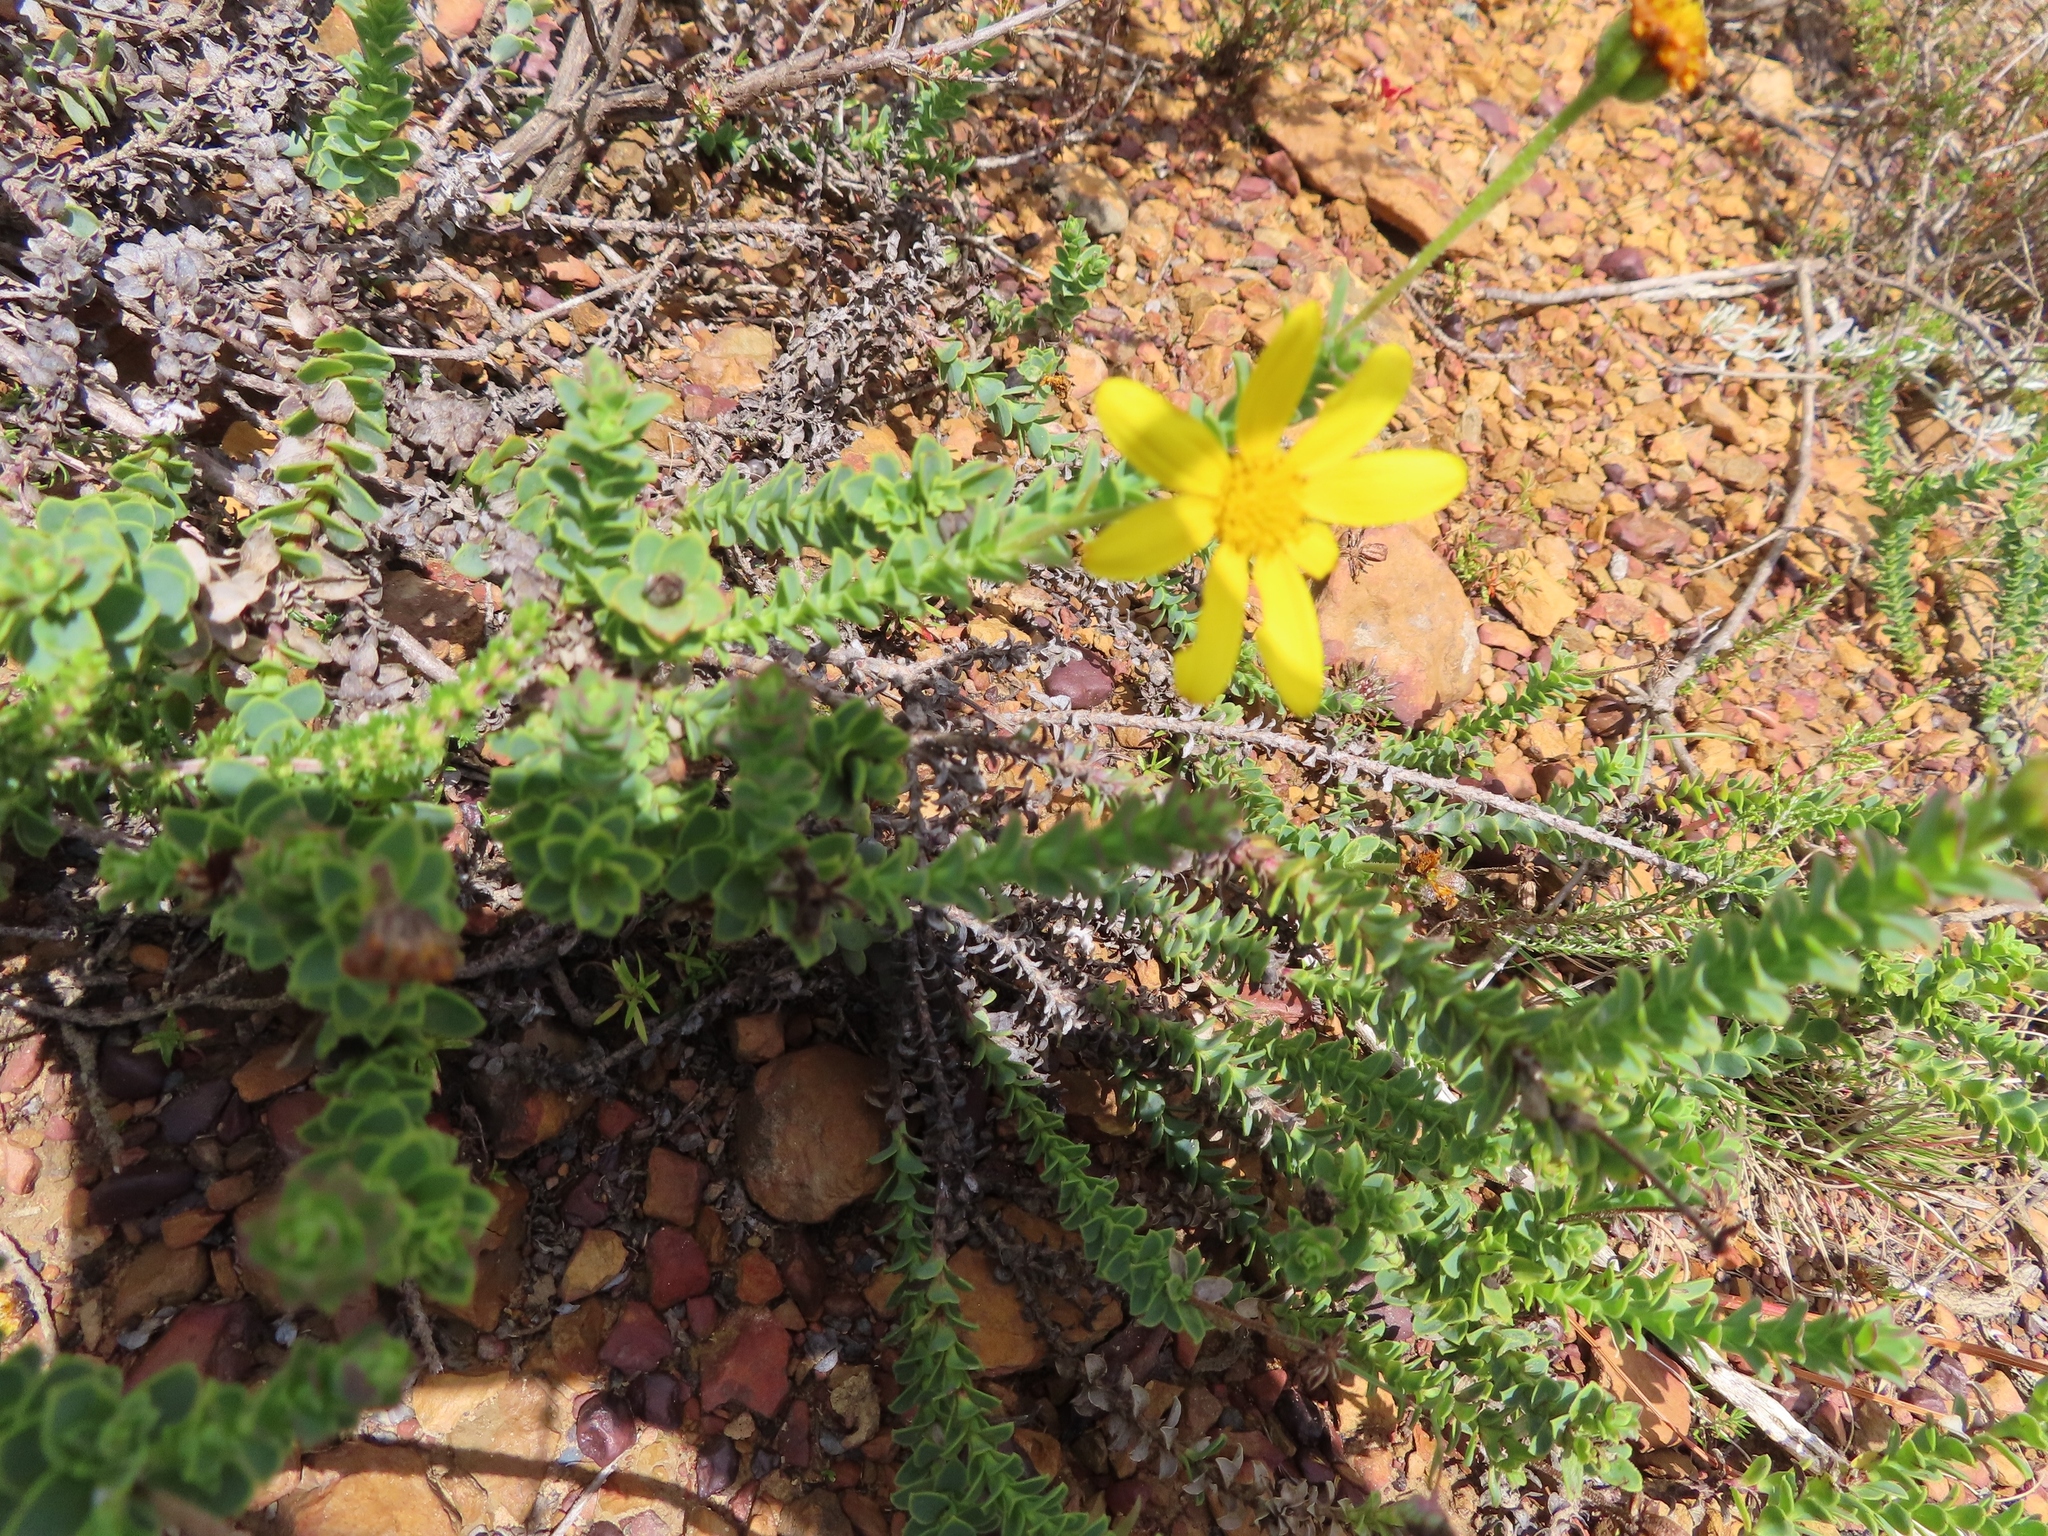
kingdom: Plantae
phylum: Tracheophyta
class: Magnoliopsida
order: Asterales
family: Asteraceae
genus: Osteospermum
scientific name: Osteospermum imbricatum
